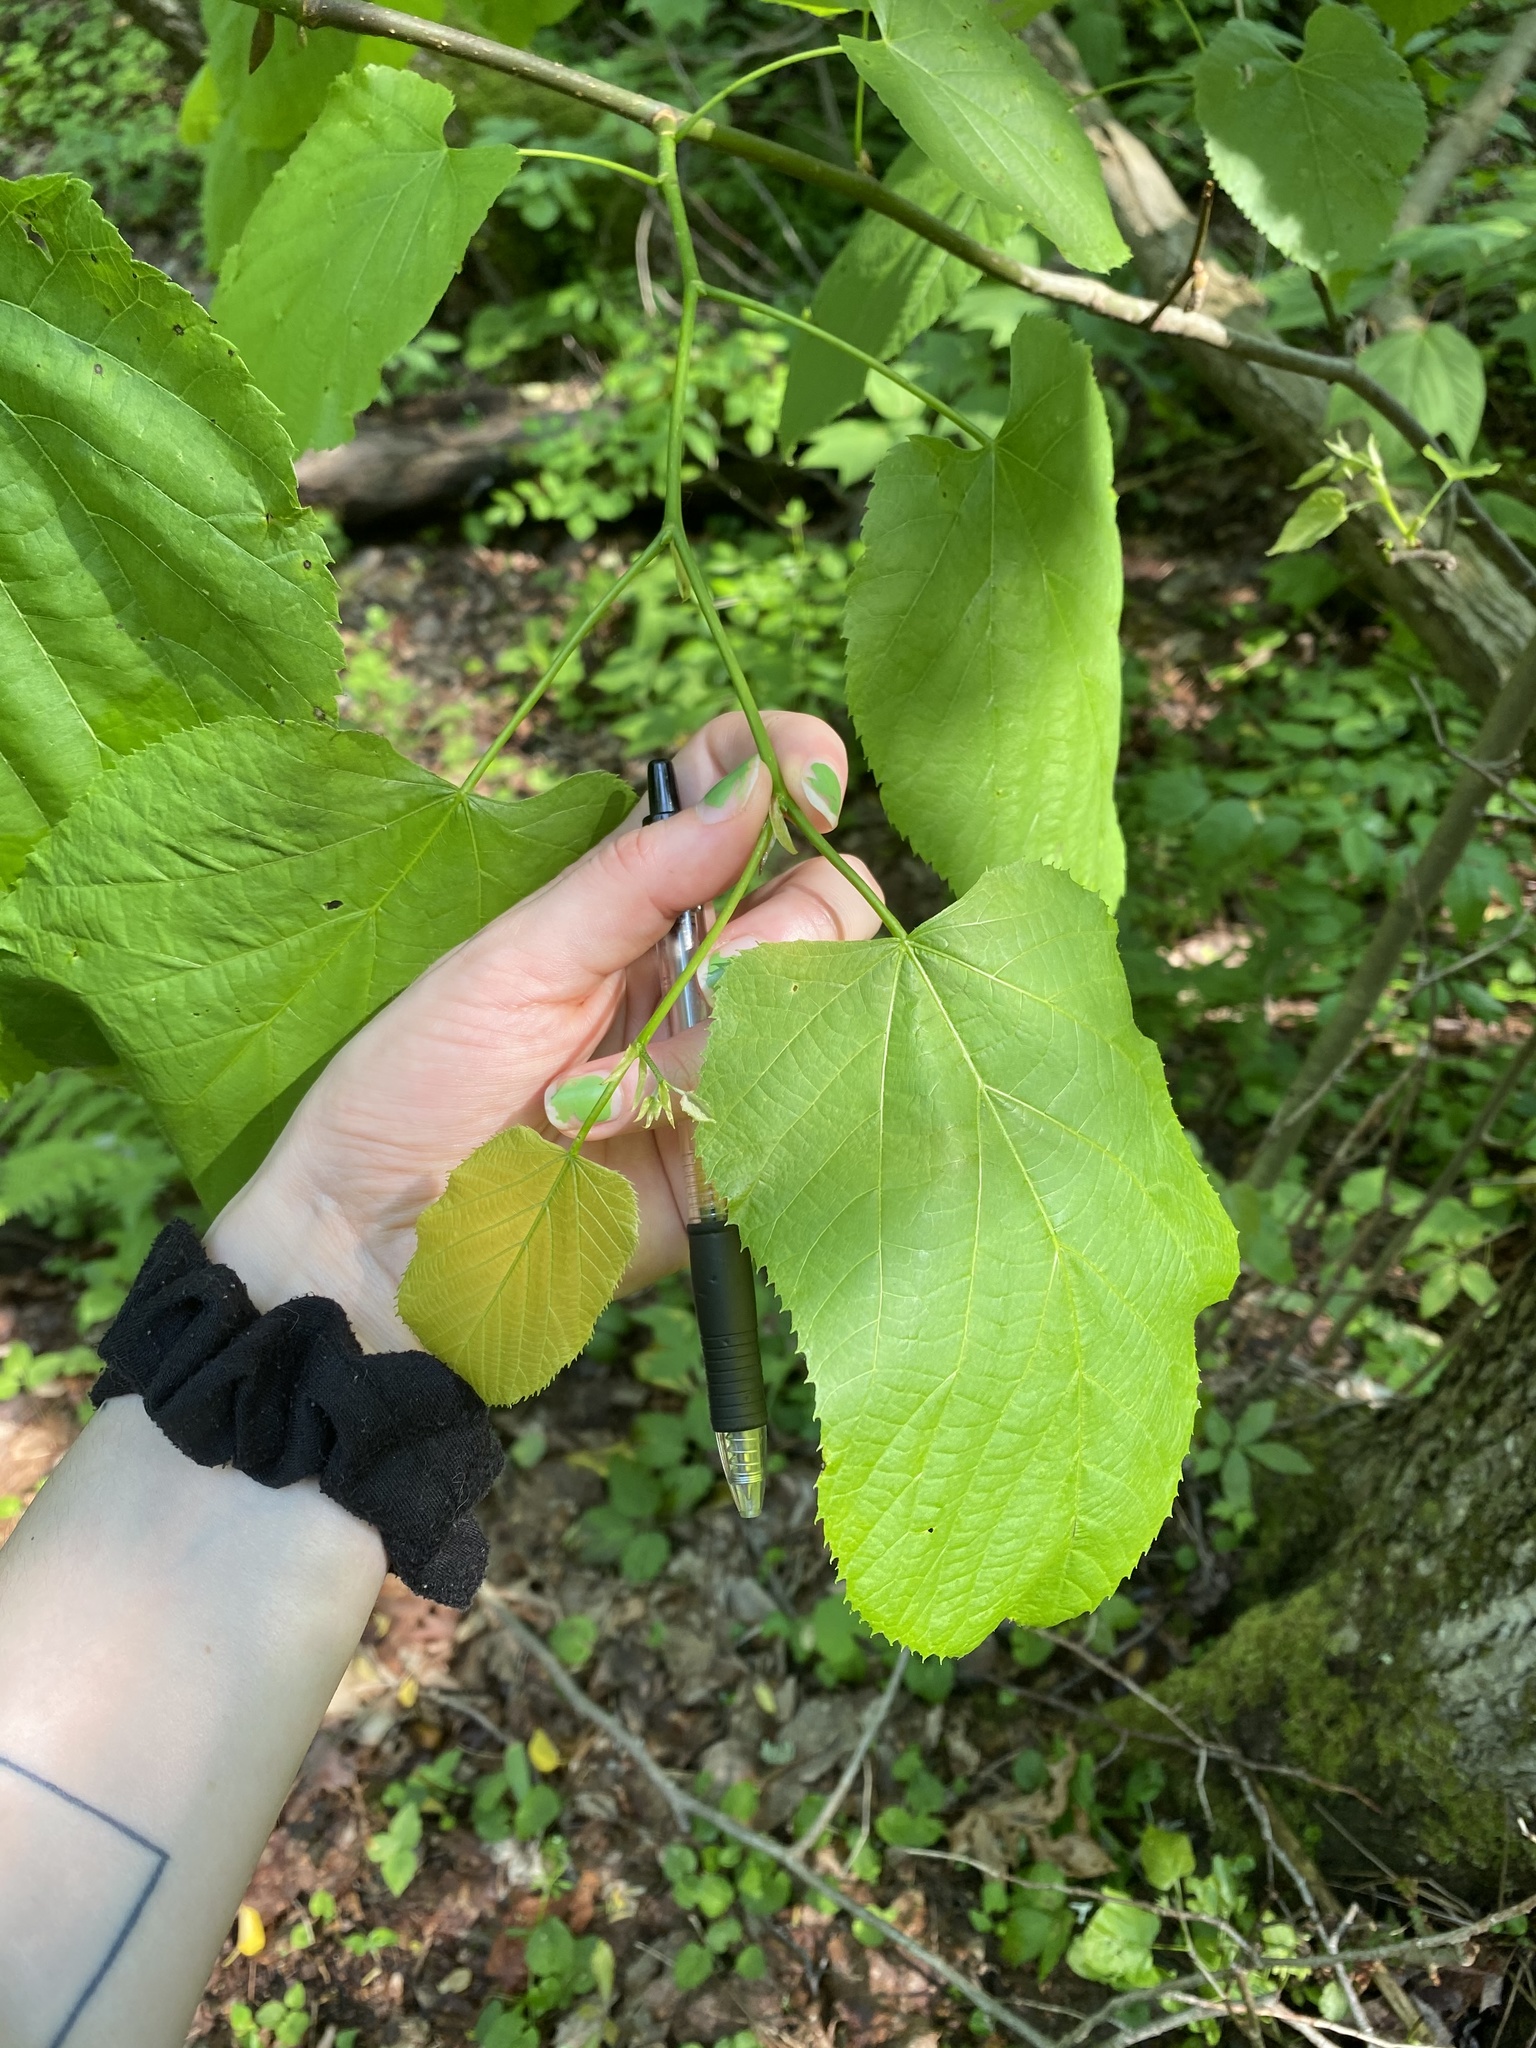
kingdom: Plantae
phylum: Tracheophyta
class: Magnoliopsida
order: Malvales
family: Malvaceae
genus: Tilia
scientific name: Tilia americana
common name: Basswood
